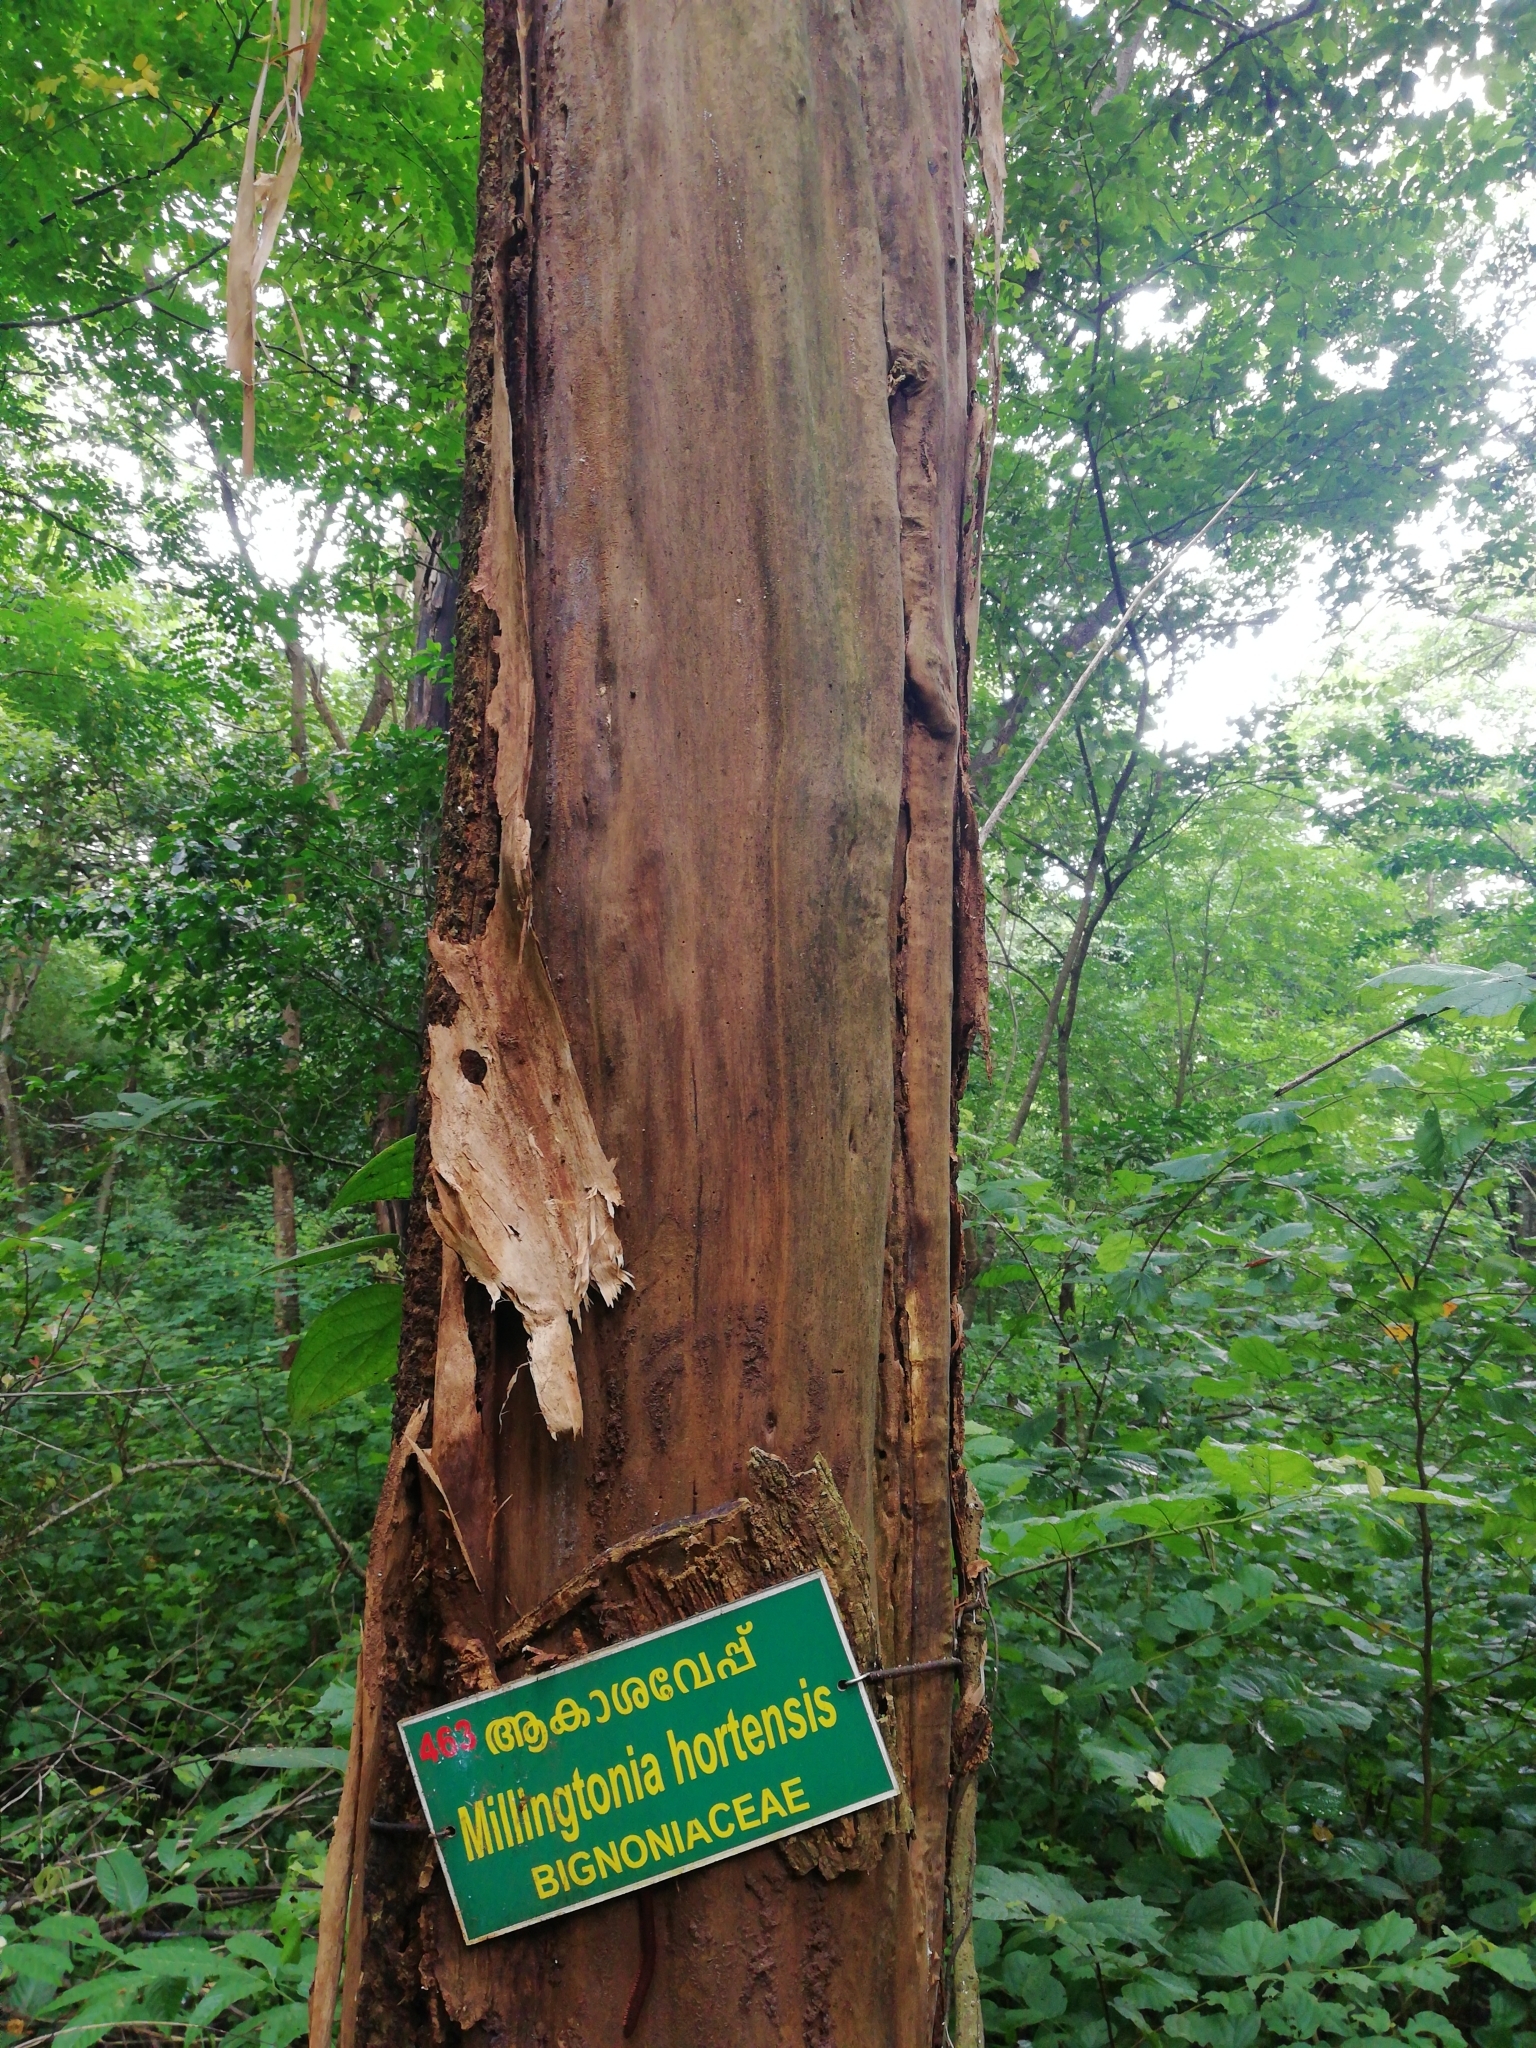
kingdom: Plantae
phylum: Tracheophyta
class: Magnoliopsida
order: Lamiales
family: Bignoniaceae
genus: Millingtonia
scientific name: Millingtonia hortensis
